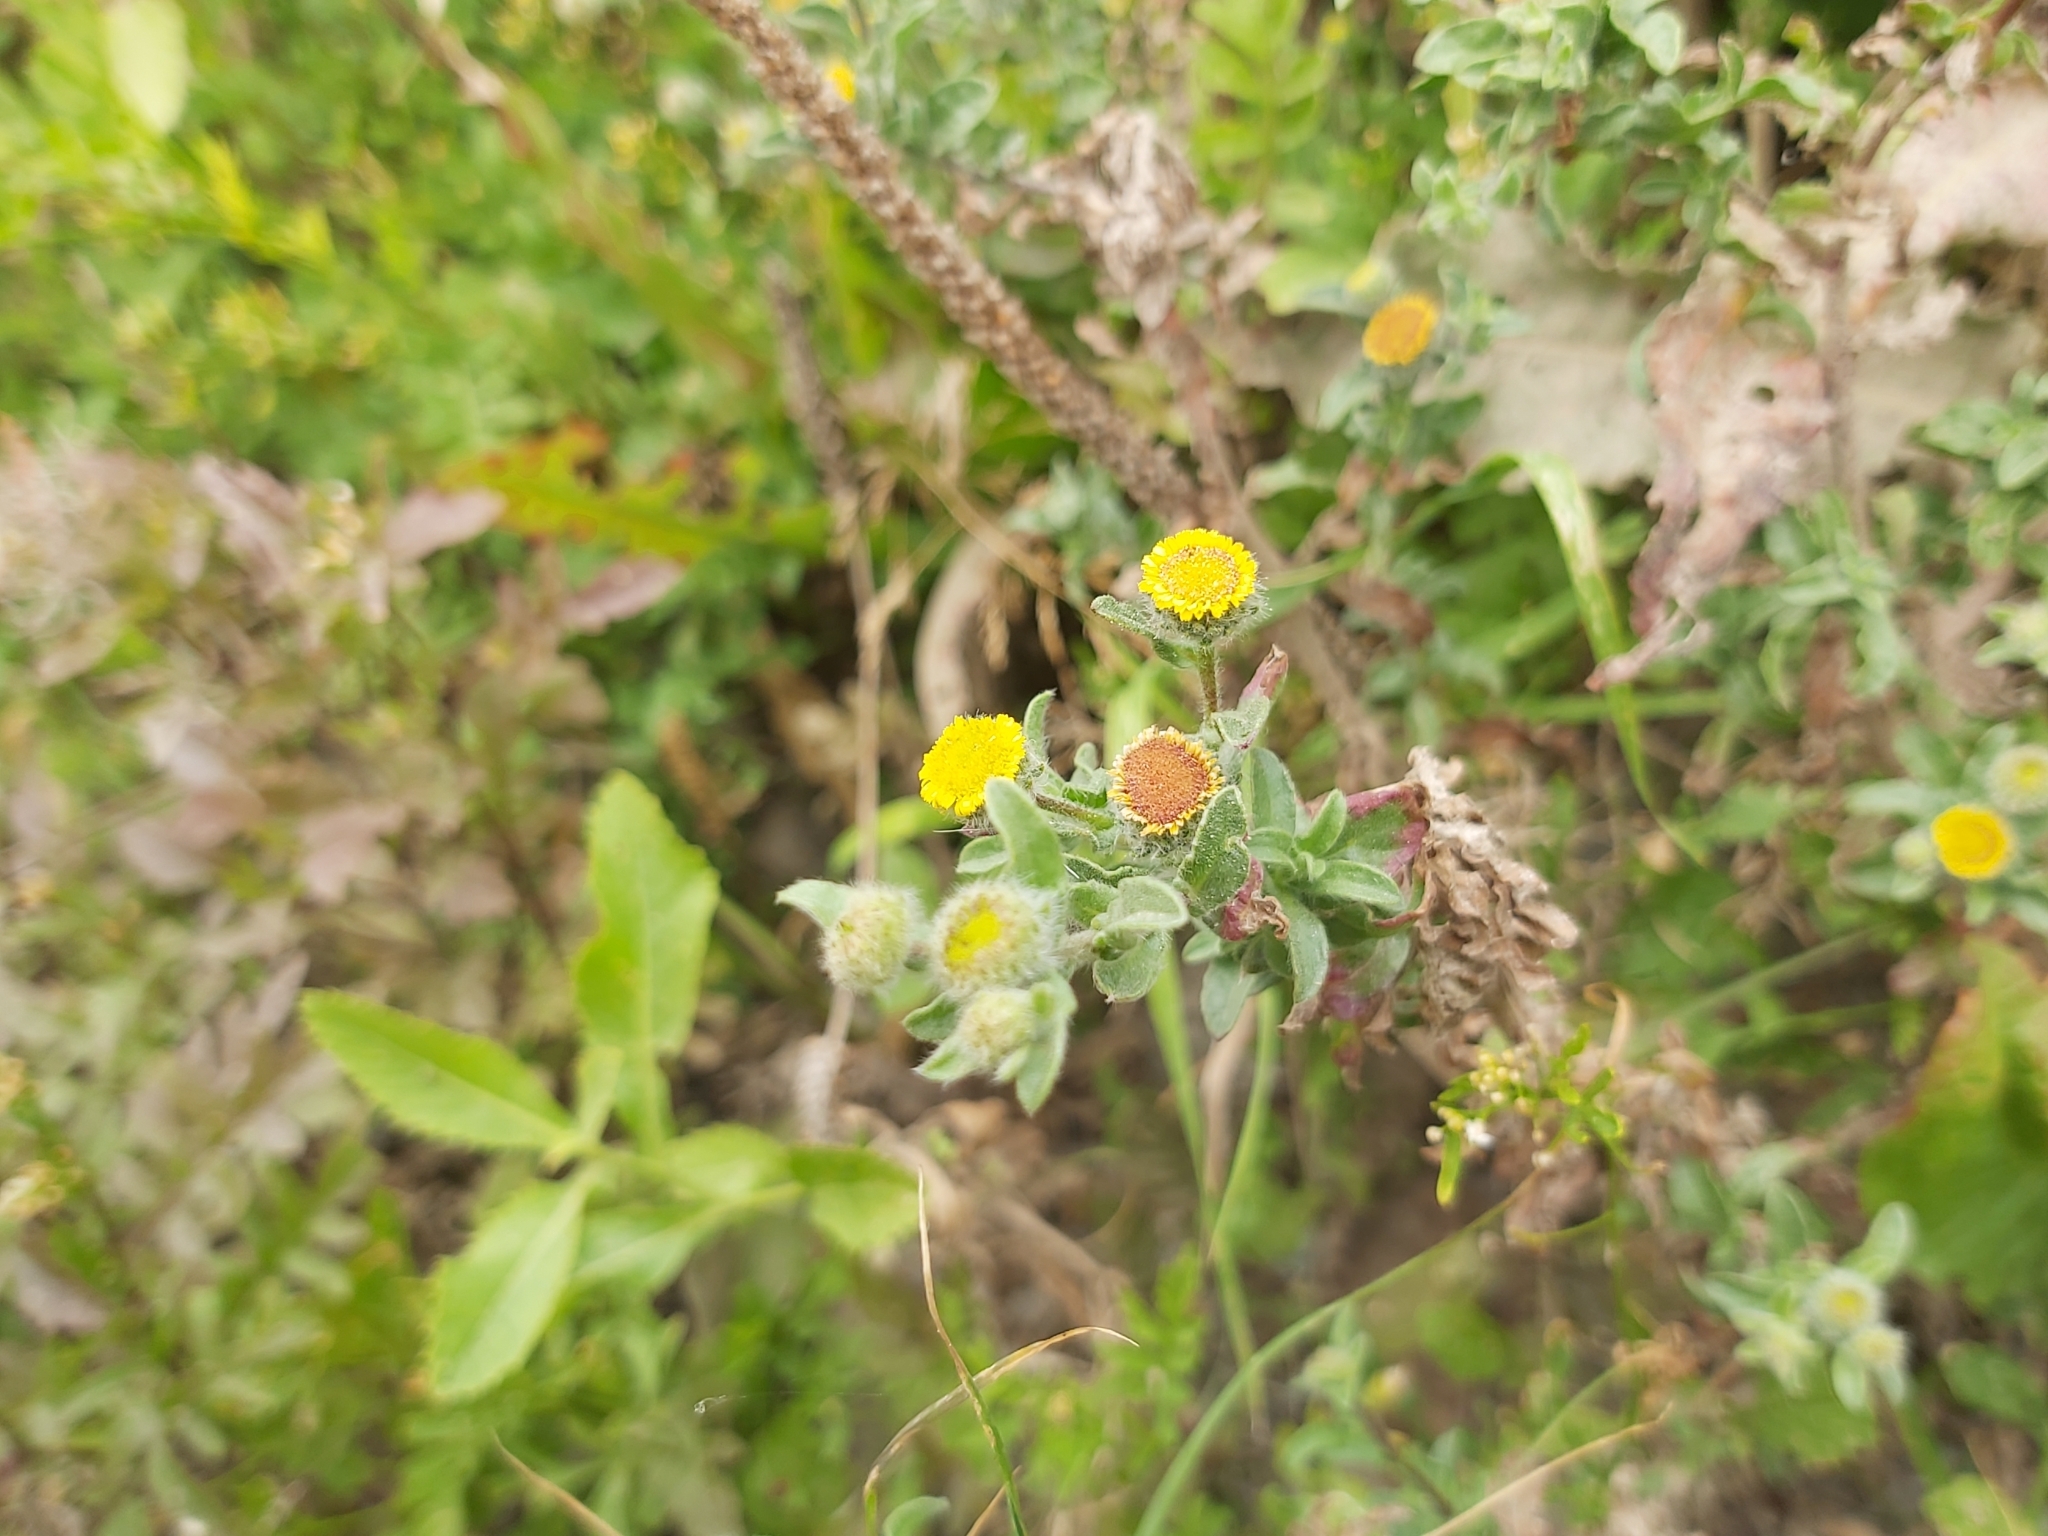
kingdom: Plantae
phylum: Tracheophyta
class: Magnoliopsida
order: Asterales
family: Asteraceae
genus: Pulicaria
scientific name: Pulicaria vulgaris
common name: Small fleabane
